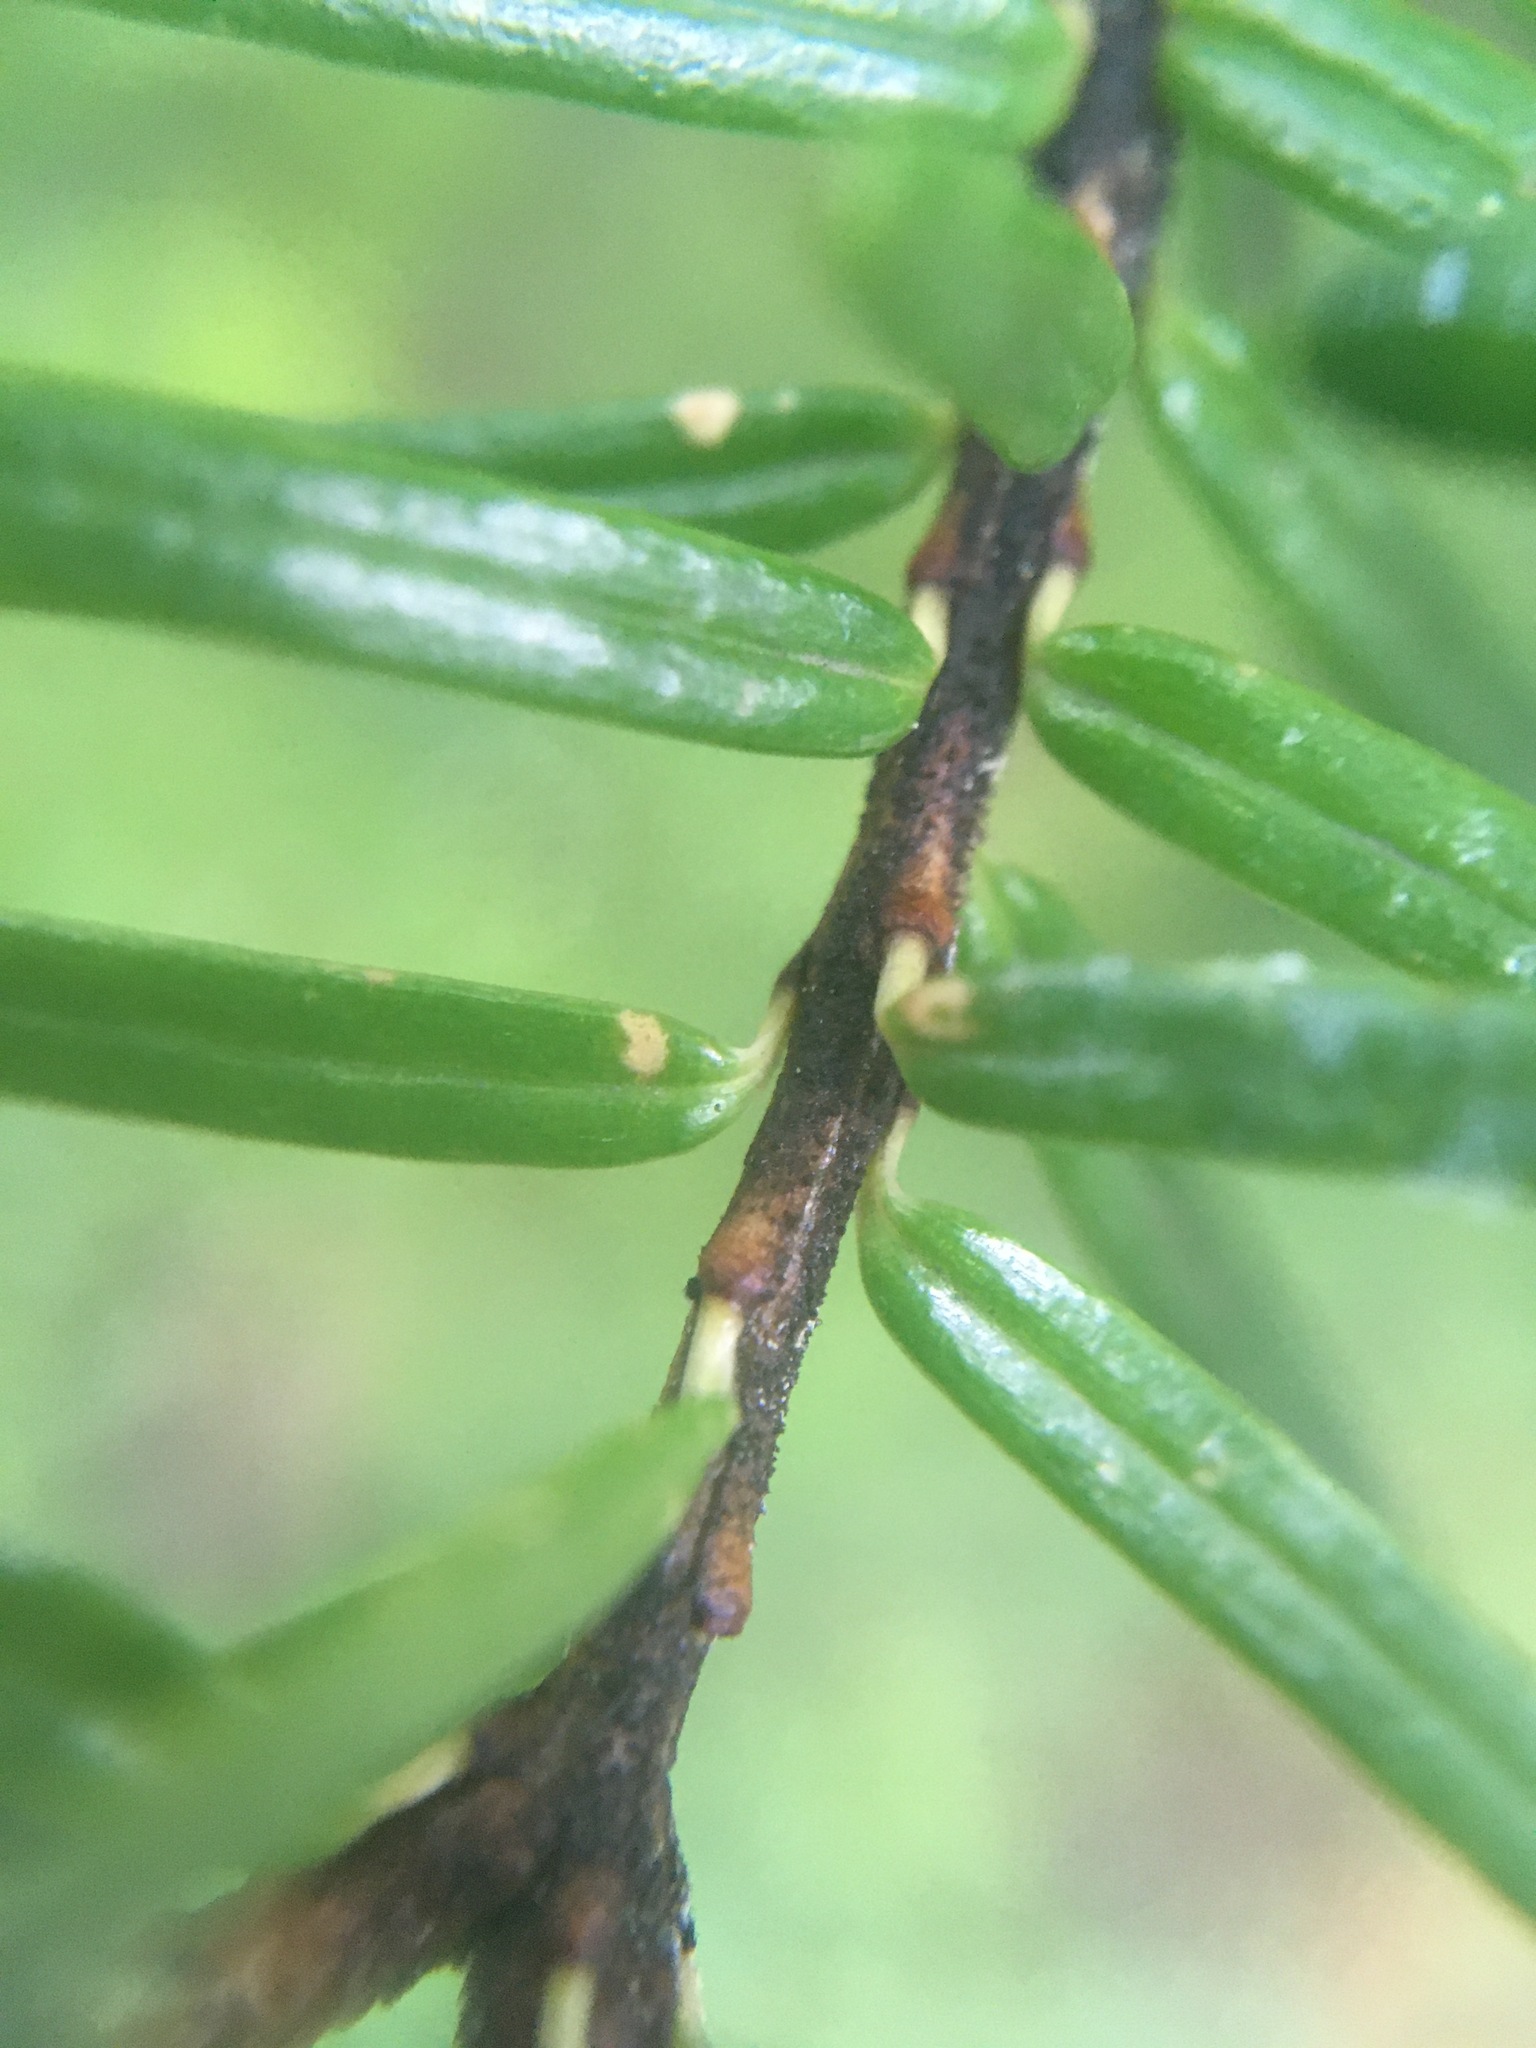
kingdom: Plantae
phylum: Tracheophyta
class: Pinopsida
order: Pinales
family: Pinaceae
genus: Tsuga
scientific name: Tsuga caroliniana
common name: Carolina hemlock
